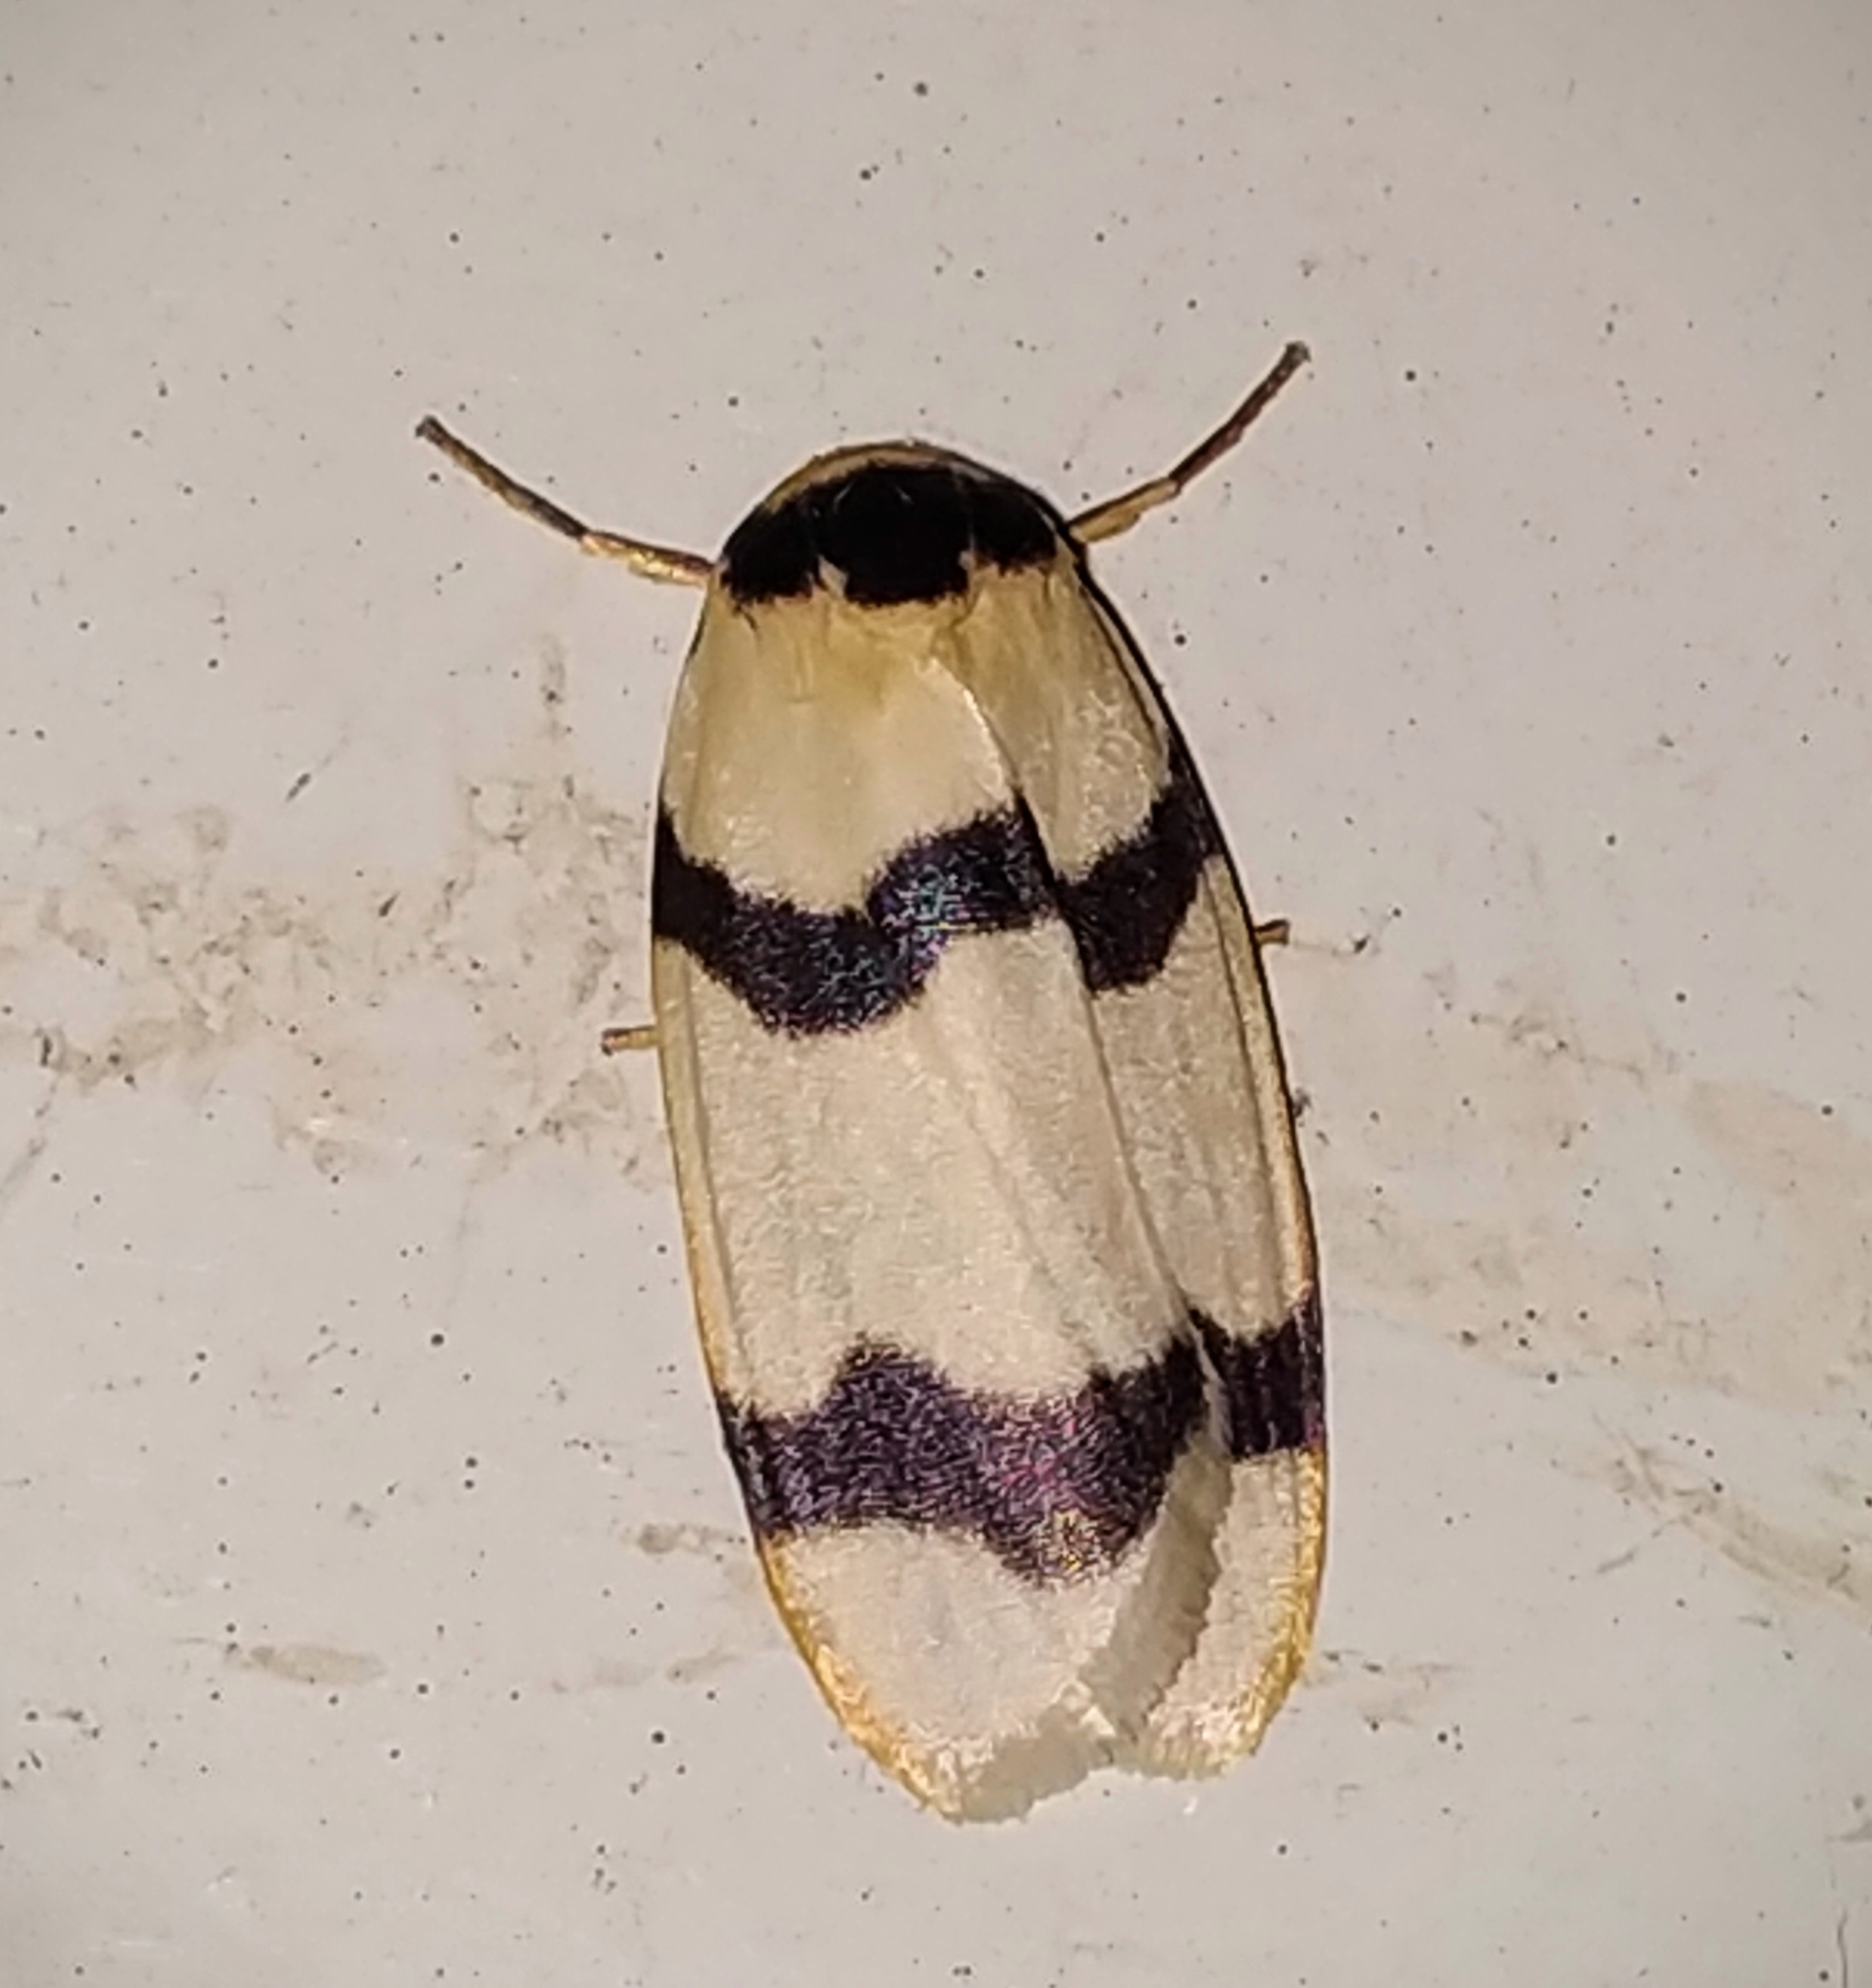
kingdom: Animalia
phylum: Arthropoda
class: Insecta
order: Lepidoptera
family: Erebidae
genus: Padenia
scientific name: Padenia transversa
